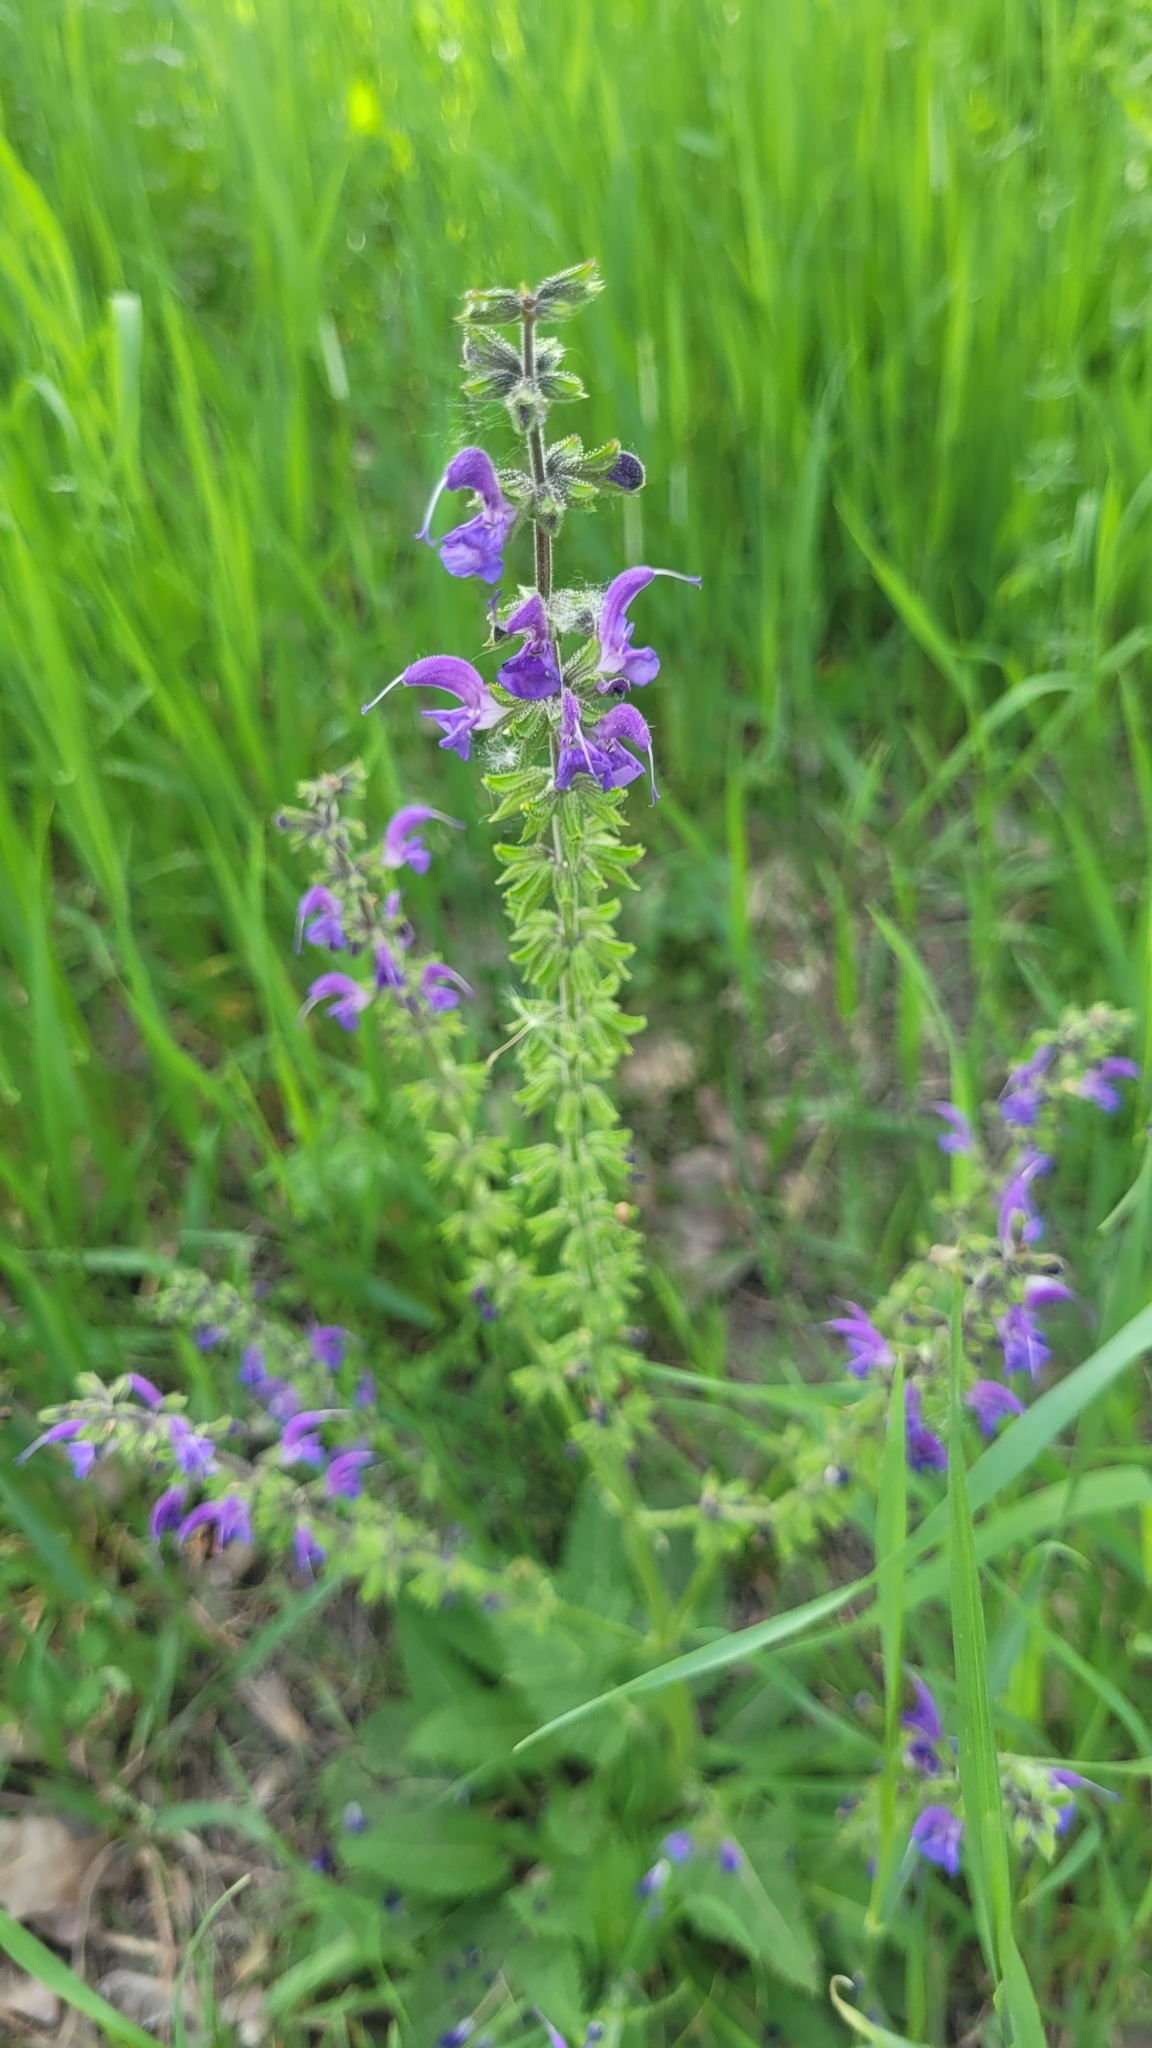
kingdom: Plantae
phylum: Tracheophyta
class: Magnoliopsida
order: Lamiales
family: Lamiaceae
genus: Salvia
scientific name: Salvia pratensis
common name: Meadow sage
